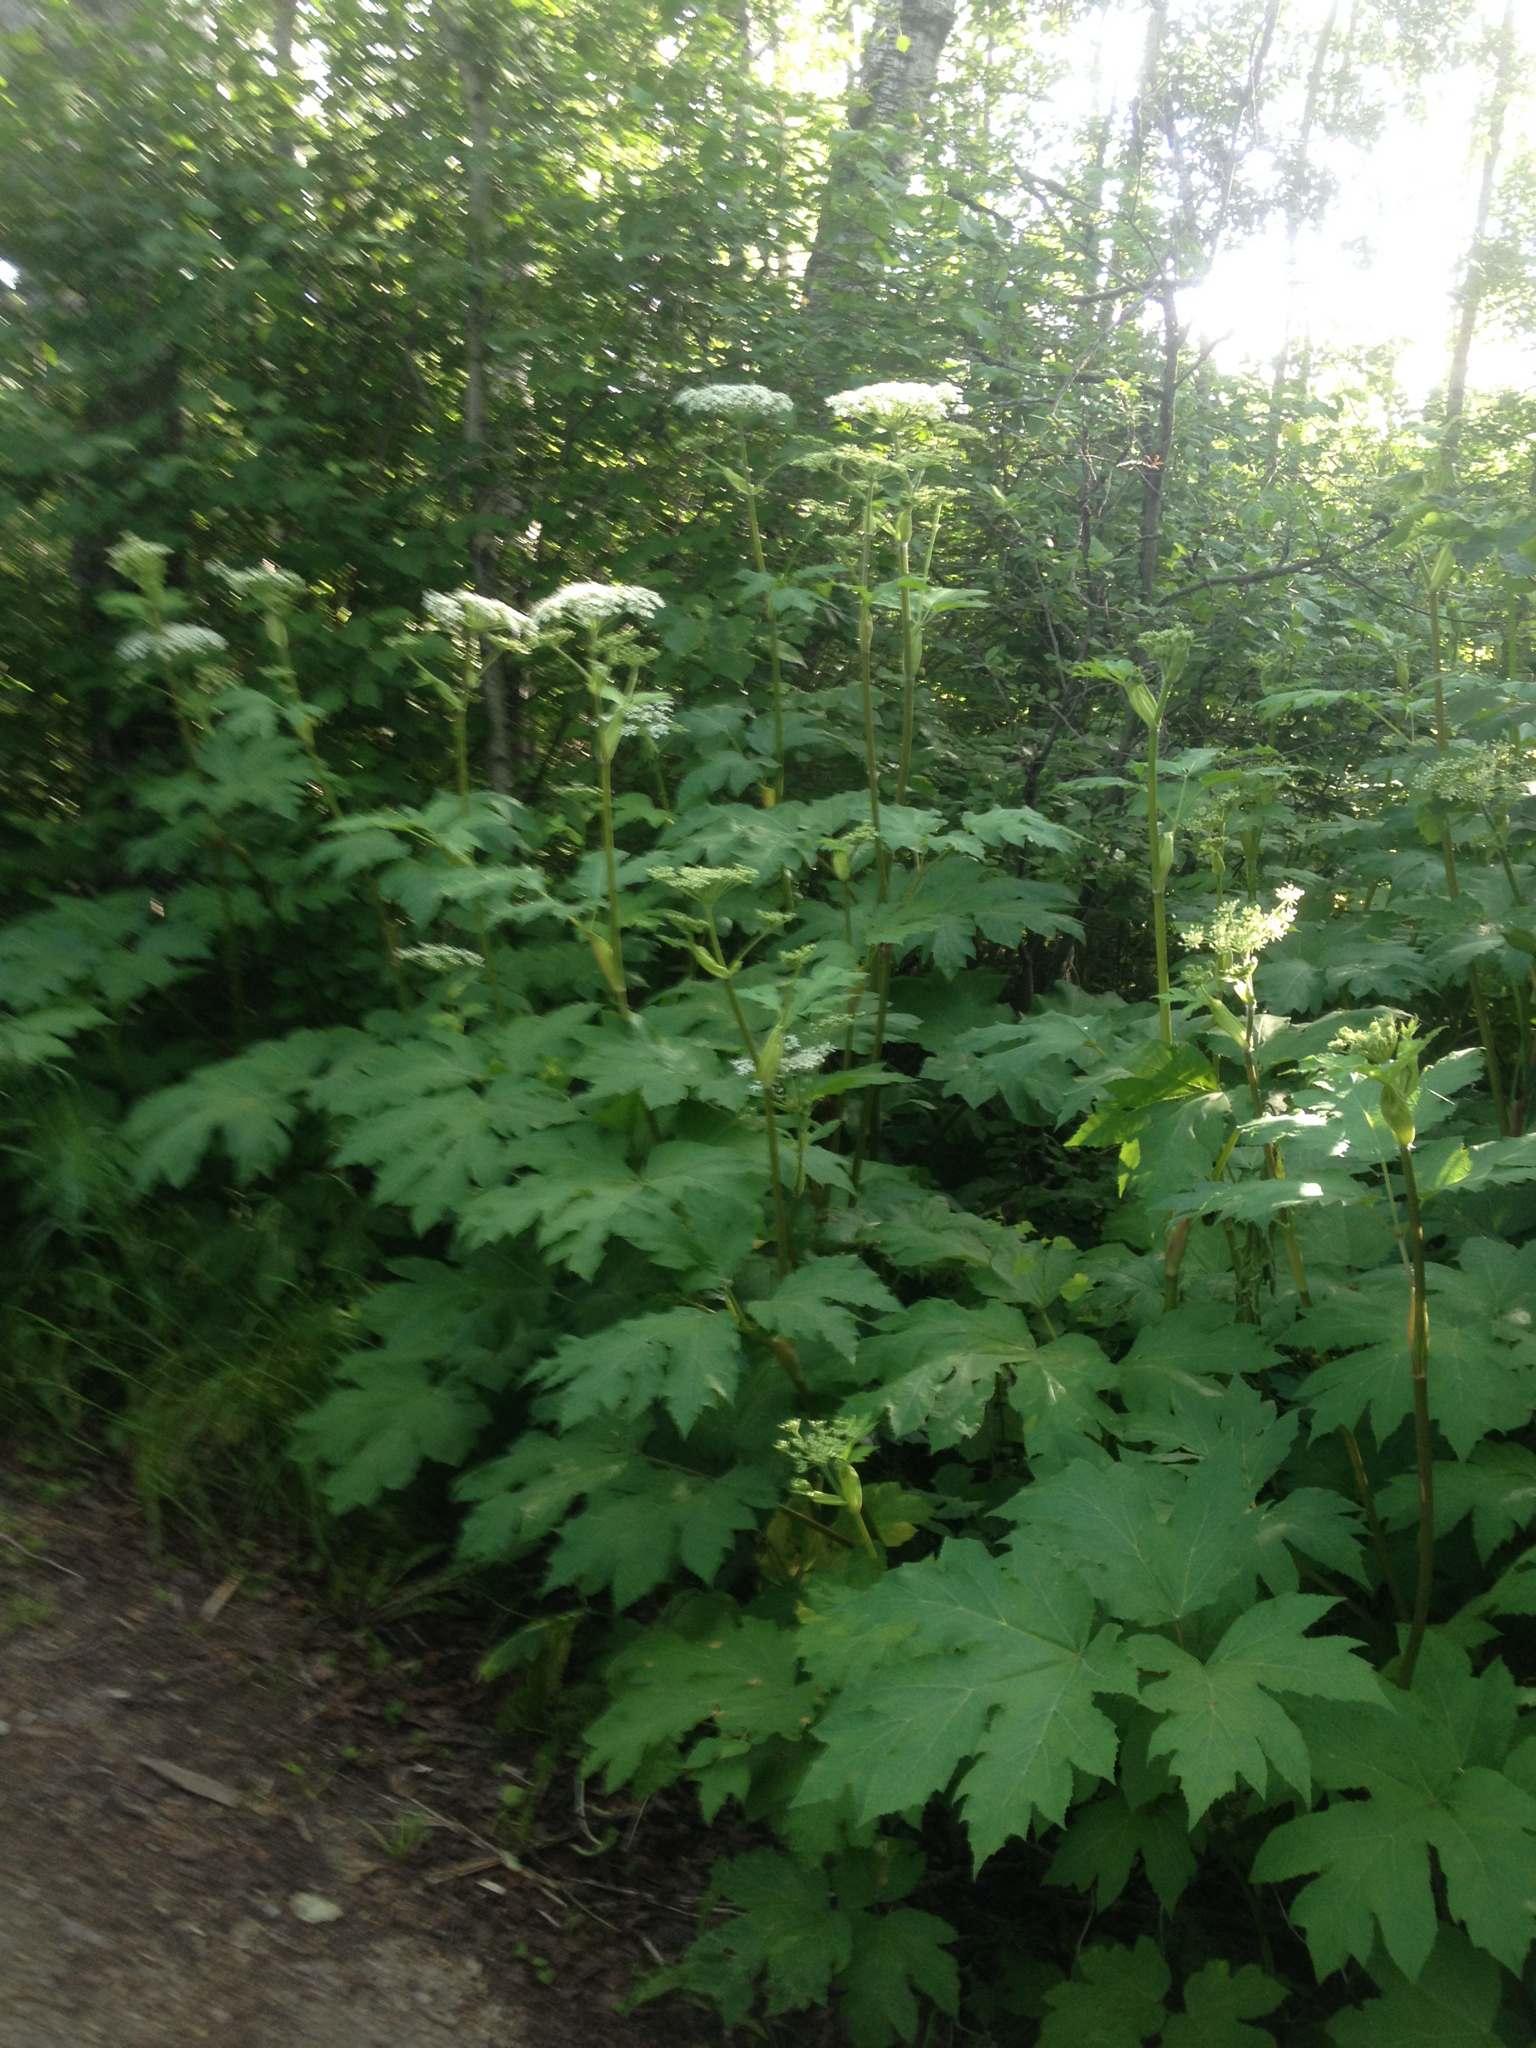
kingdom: Plantae
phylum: Tracheophyta
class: Magnoliopsida
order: Apiales
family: Apiaceae
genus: Heracleum
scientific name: Heracleum maximum
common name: American cow parsnip
